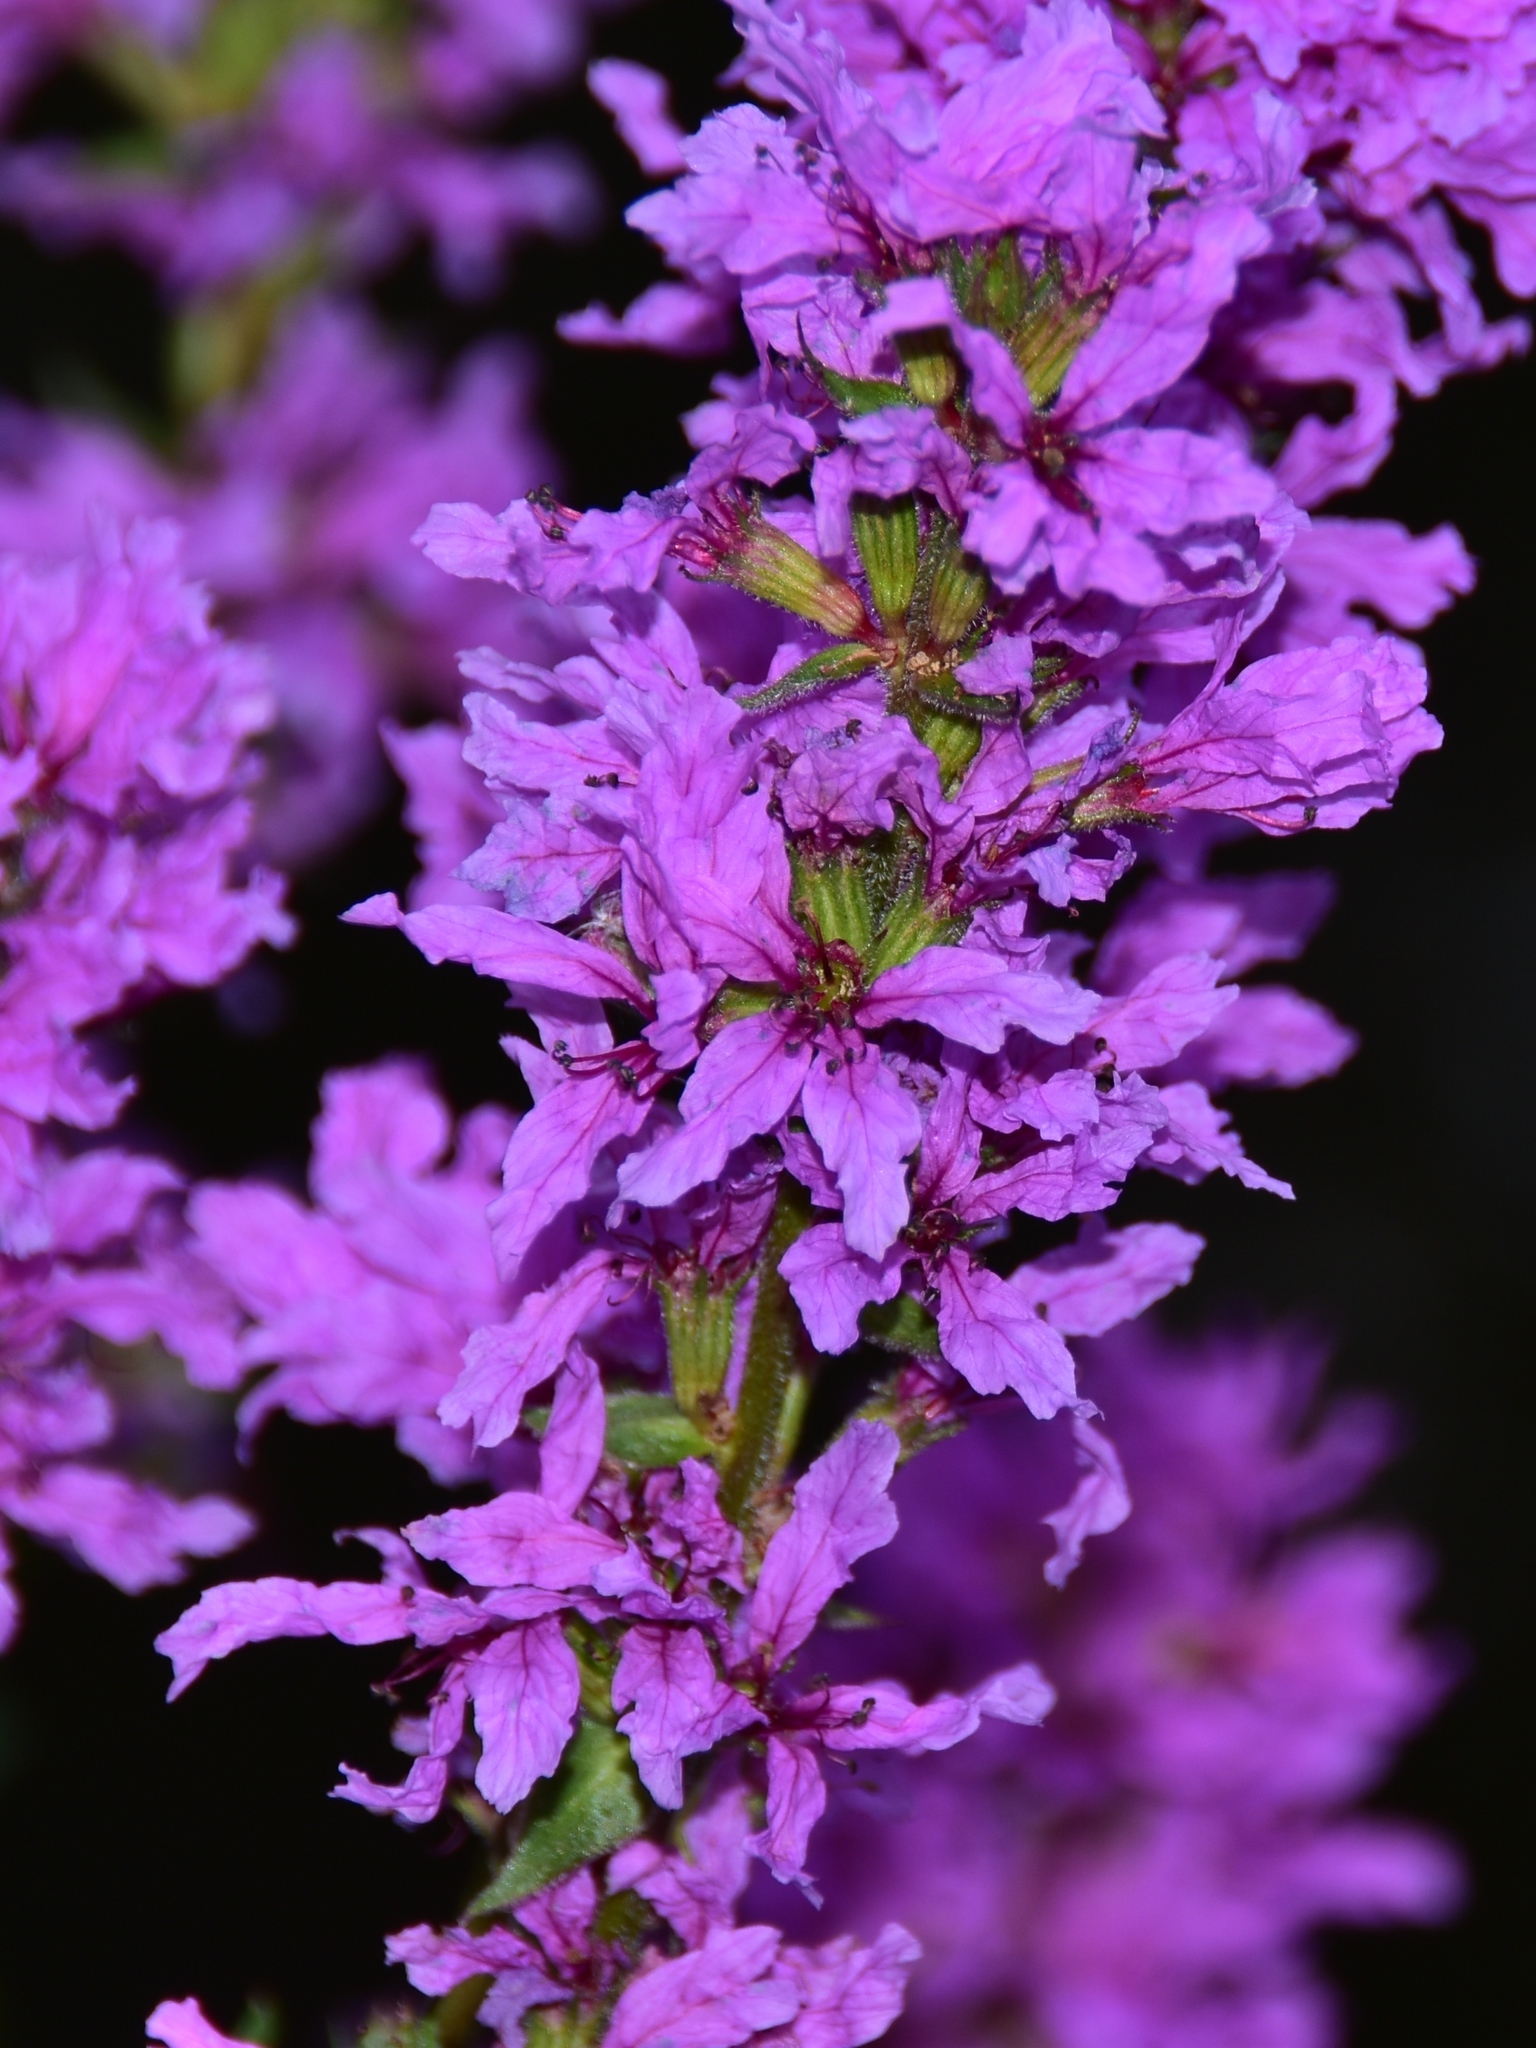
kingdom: Plantae
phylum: Tracheophyta
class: Magnoliopsida
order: Myrtales
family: Lythraceae
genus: Lythrum
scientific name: Lythrum salicaria
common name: Purple loosestrife
